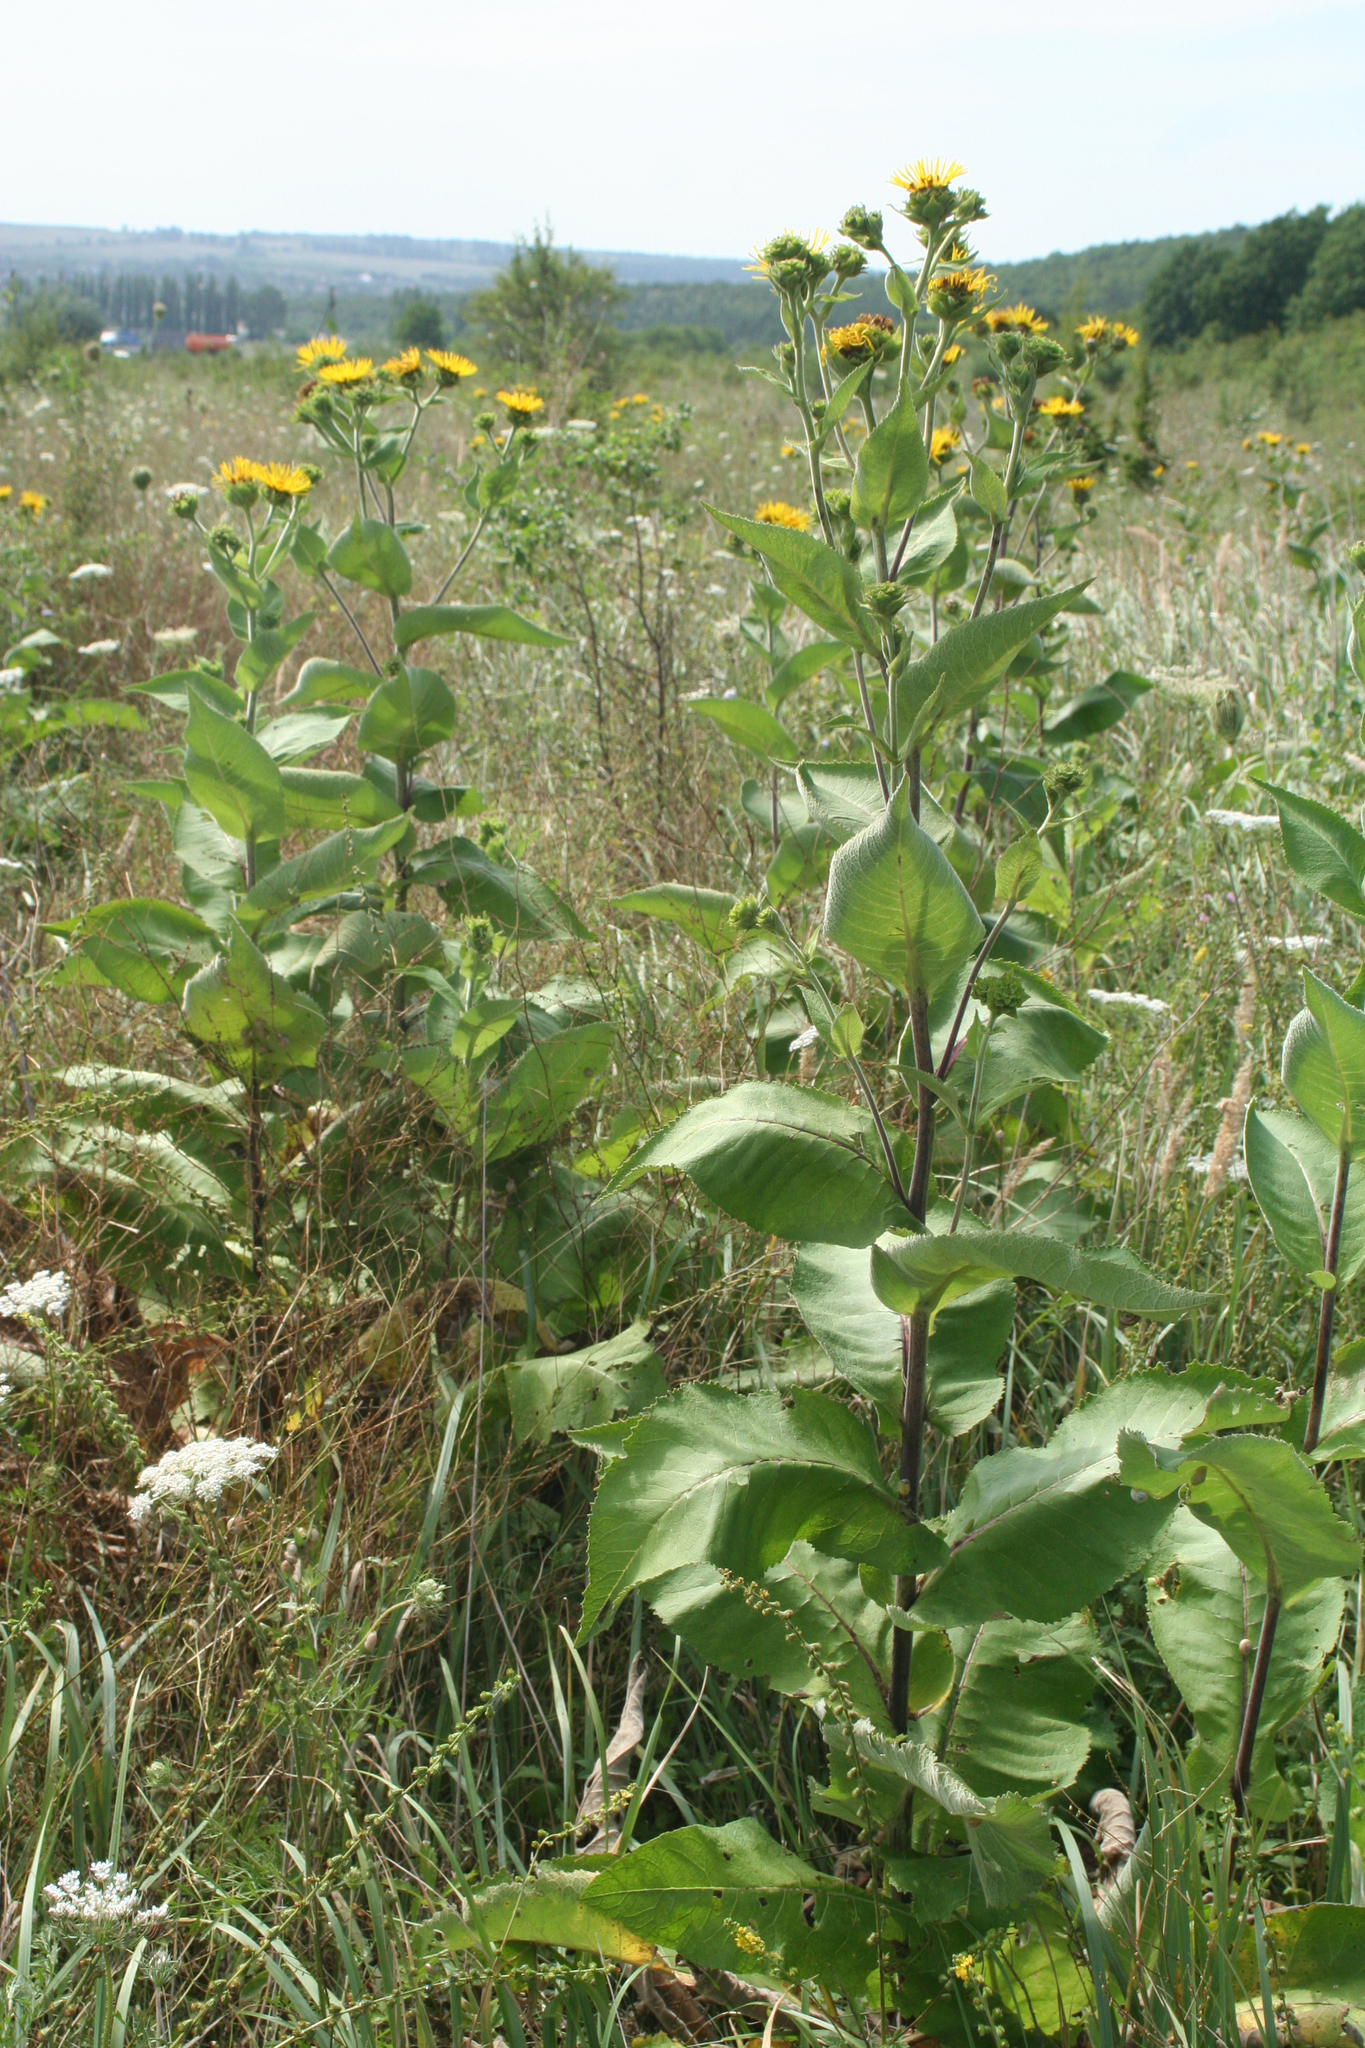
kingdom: Plantae
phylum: Tracheophyta
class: Magnoliopsida
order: Asterales
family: Asteraceae
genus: Inula
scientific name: Inula helenium
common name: Elecampane
